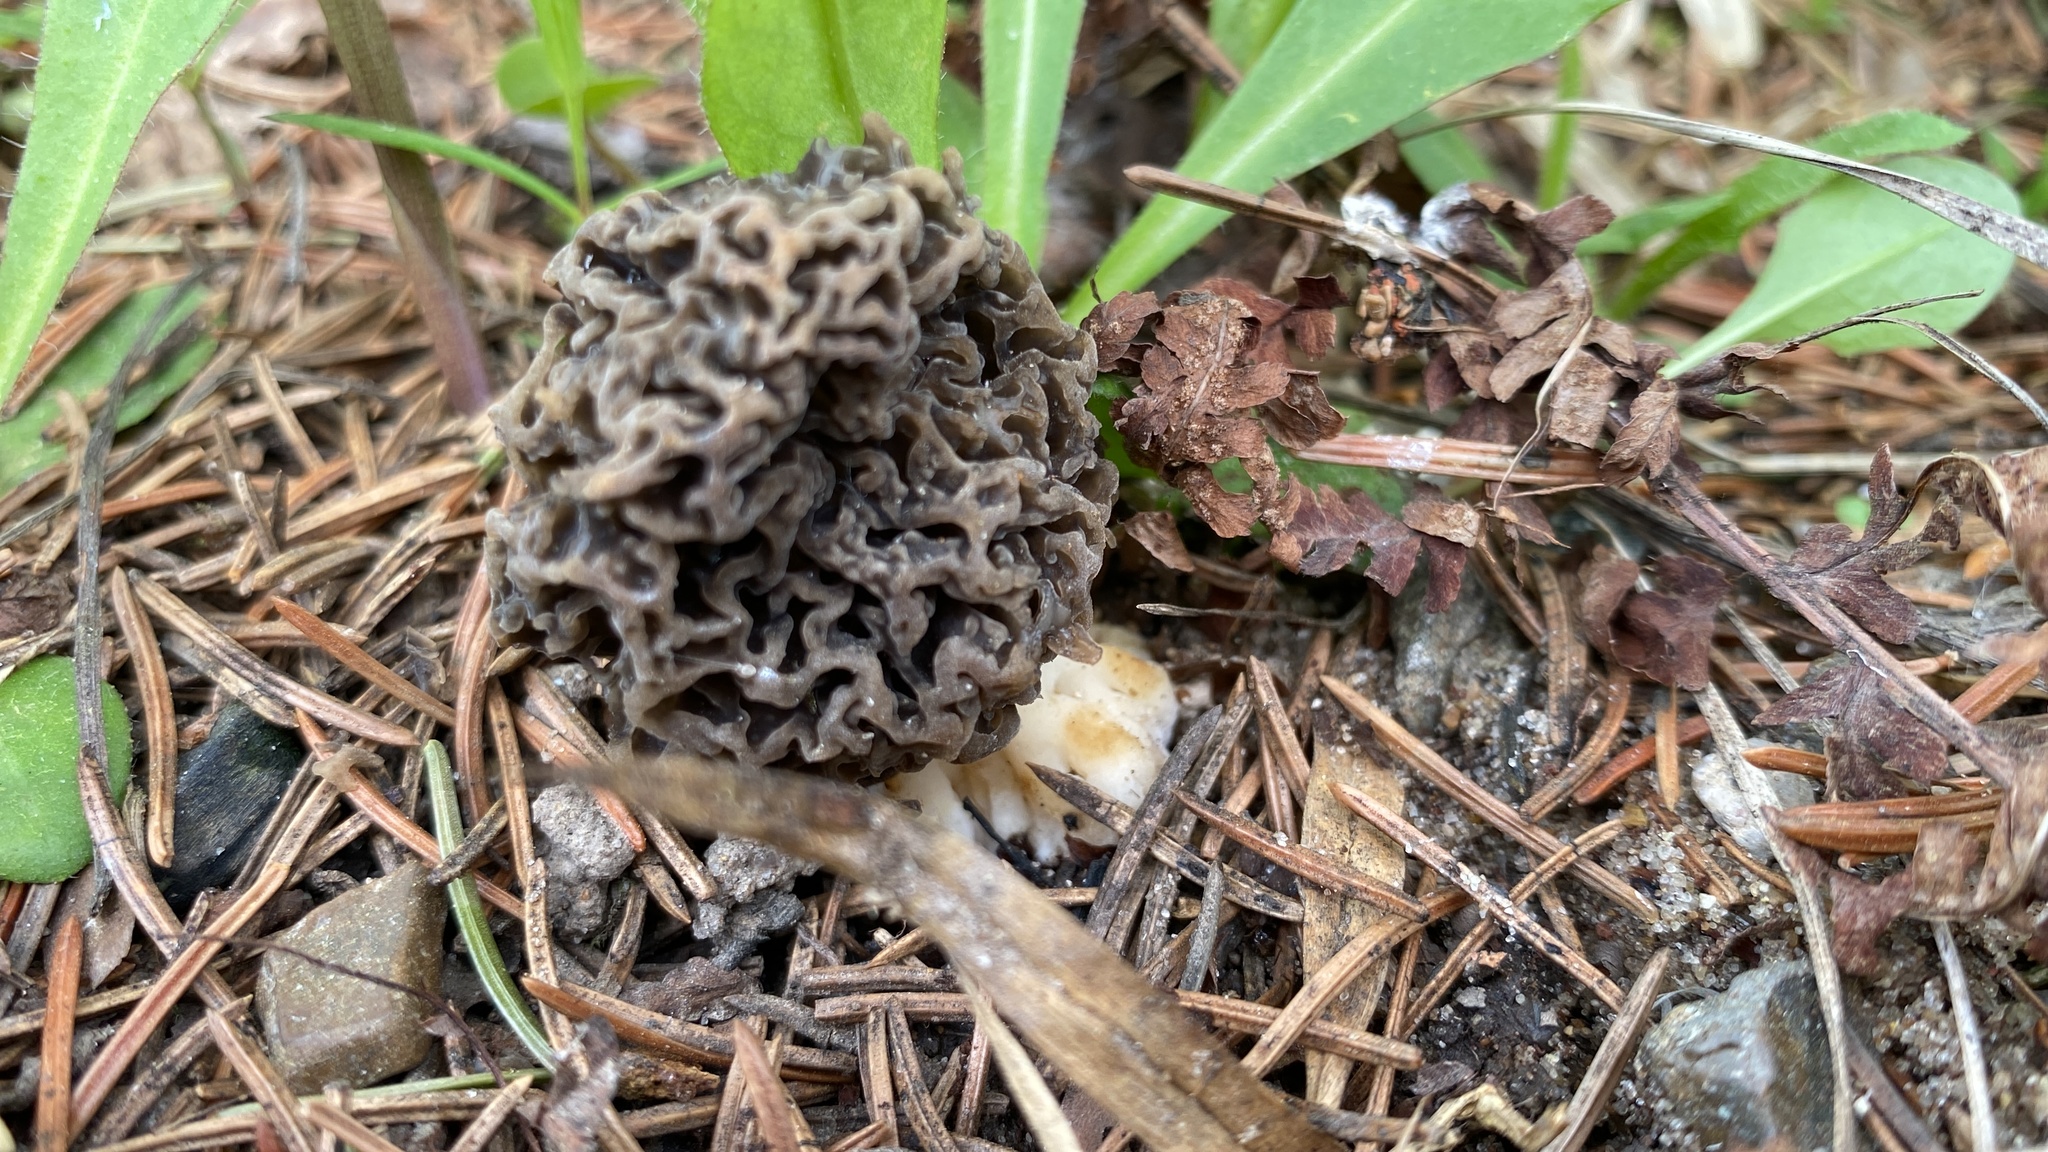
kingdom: Fungi
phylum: Ascomycota
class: Pezizomycetes
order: Pezizales
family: Morchellaceae
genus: Morchella
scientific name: Morchella esculenta
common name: Morel
